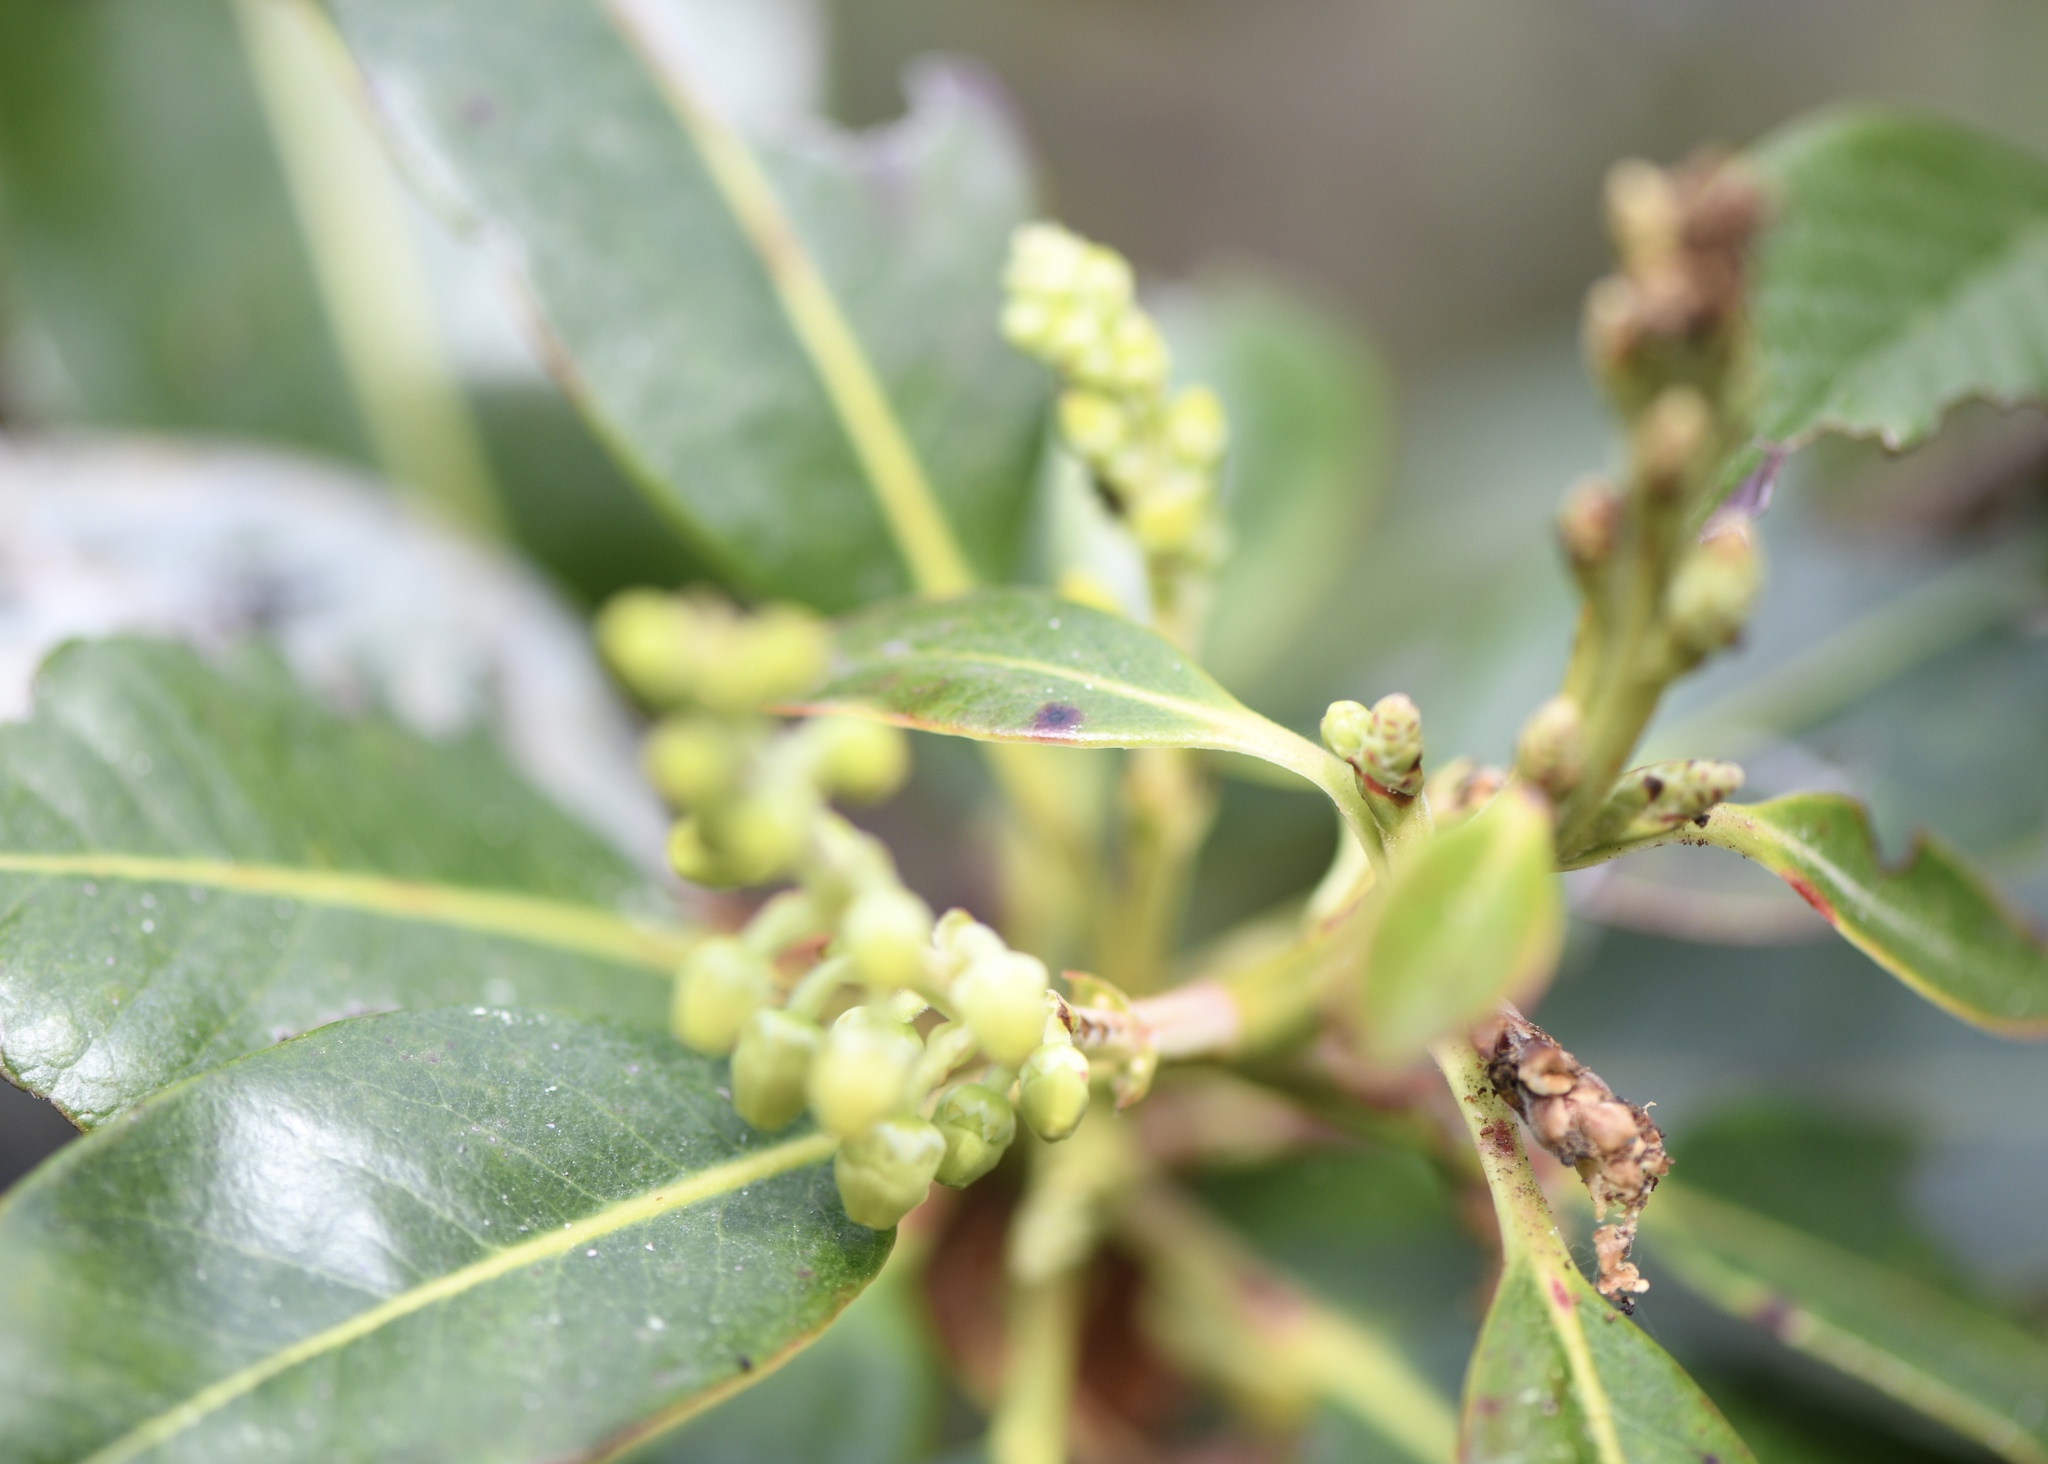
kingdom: Plantae
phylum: Tracheophyta
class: Magnoliopsida
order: Ericales
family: Ericaceae
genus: Arbutus
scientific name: Arbutus menziesii
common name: Pacific madrone
